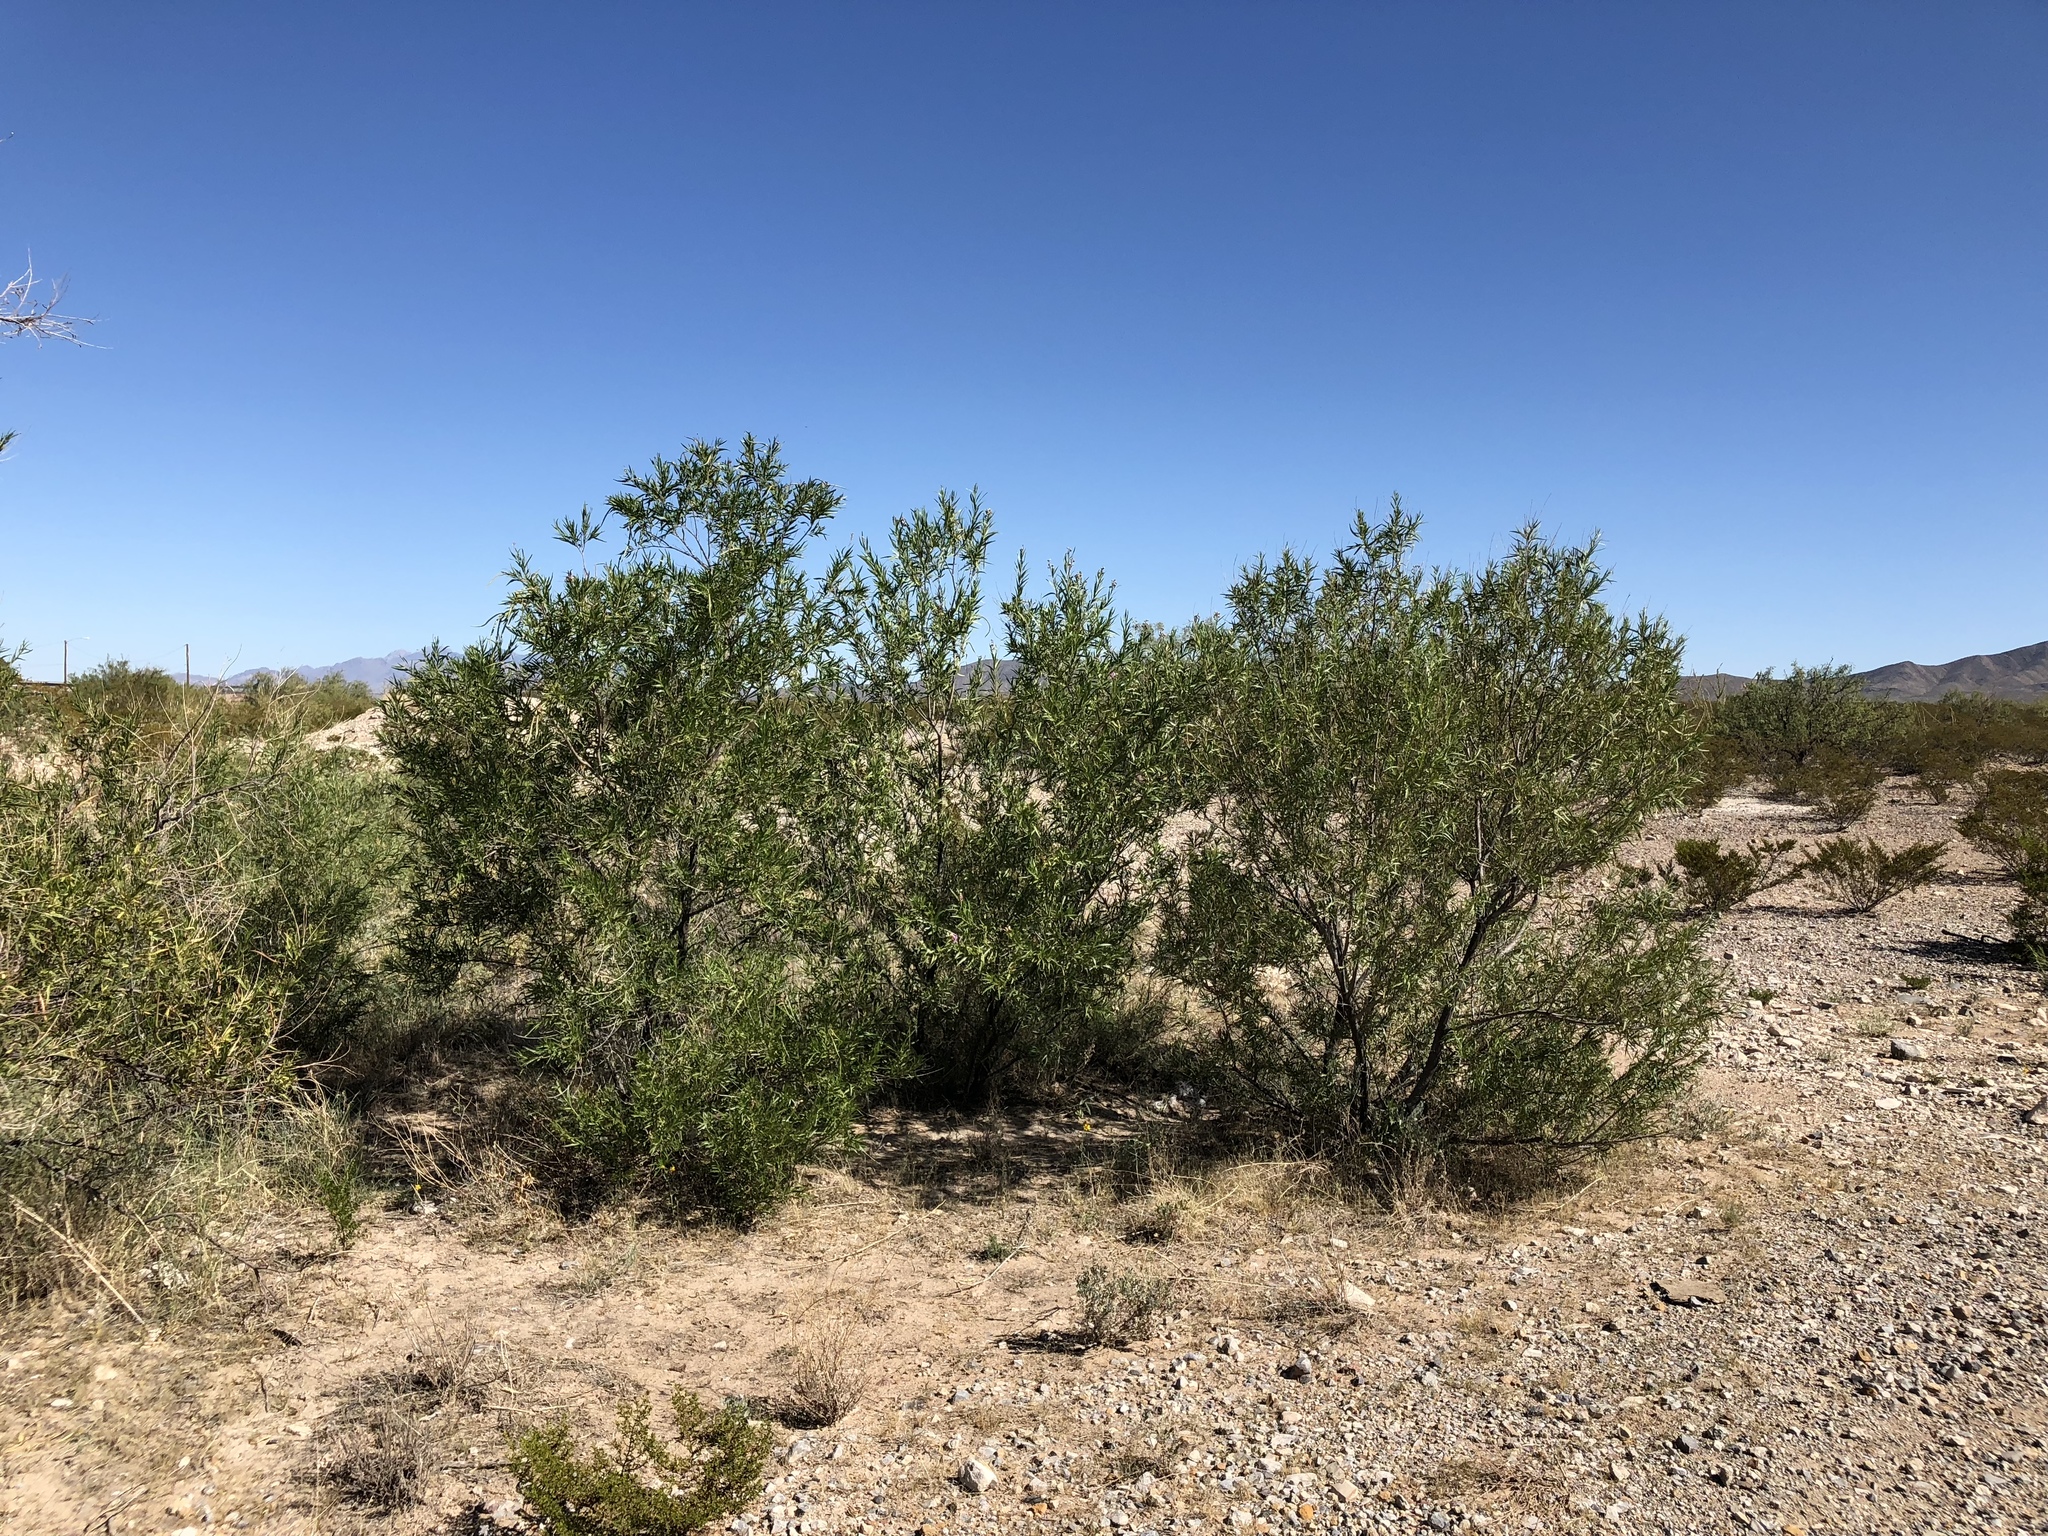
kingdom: Plantae
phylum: Tracheophyta
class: Magnoliopsida
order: Lamiales
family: Bignoniaceae
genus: Chilopsis
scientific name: Chilopsis linearis
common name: Desert-willow
